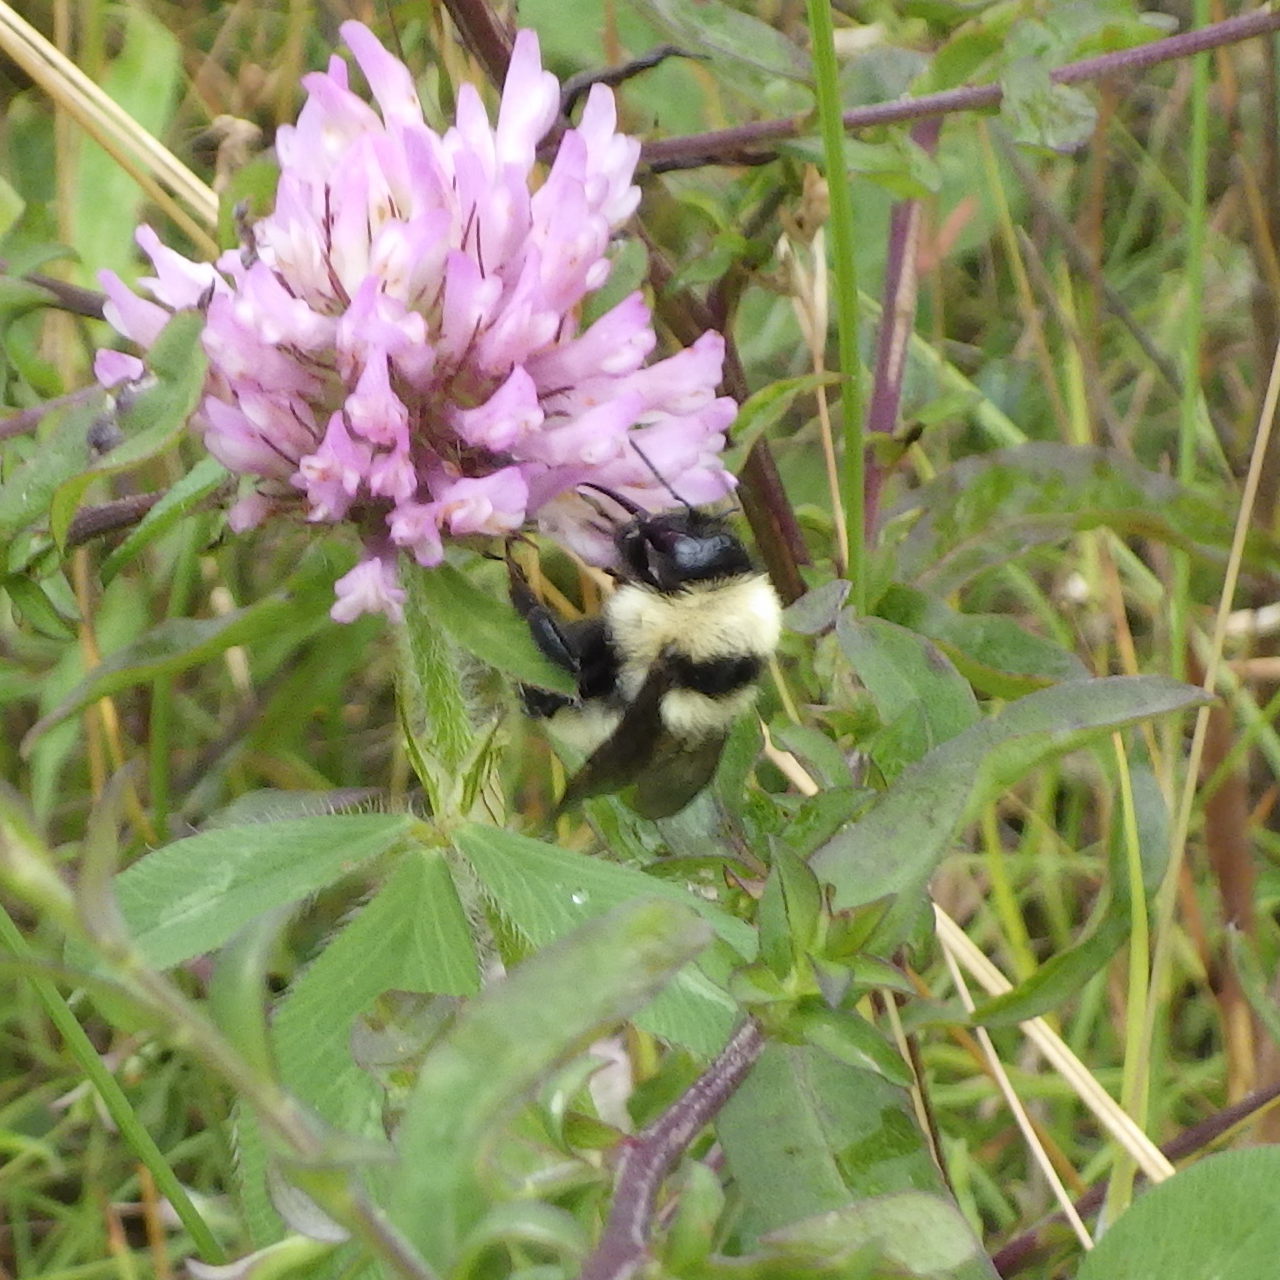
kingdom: Animalia
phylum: Arthropoda
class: Insecta
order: Hymenoptera
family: Apidae
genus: Bombus
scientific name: Bombus fervidus
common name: Yellow bumble bee
